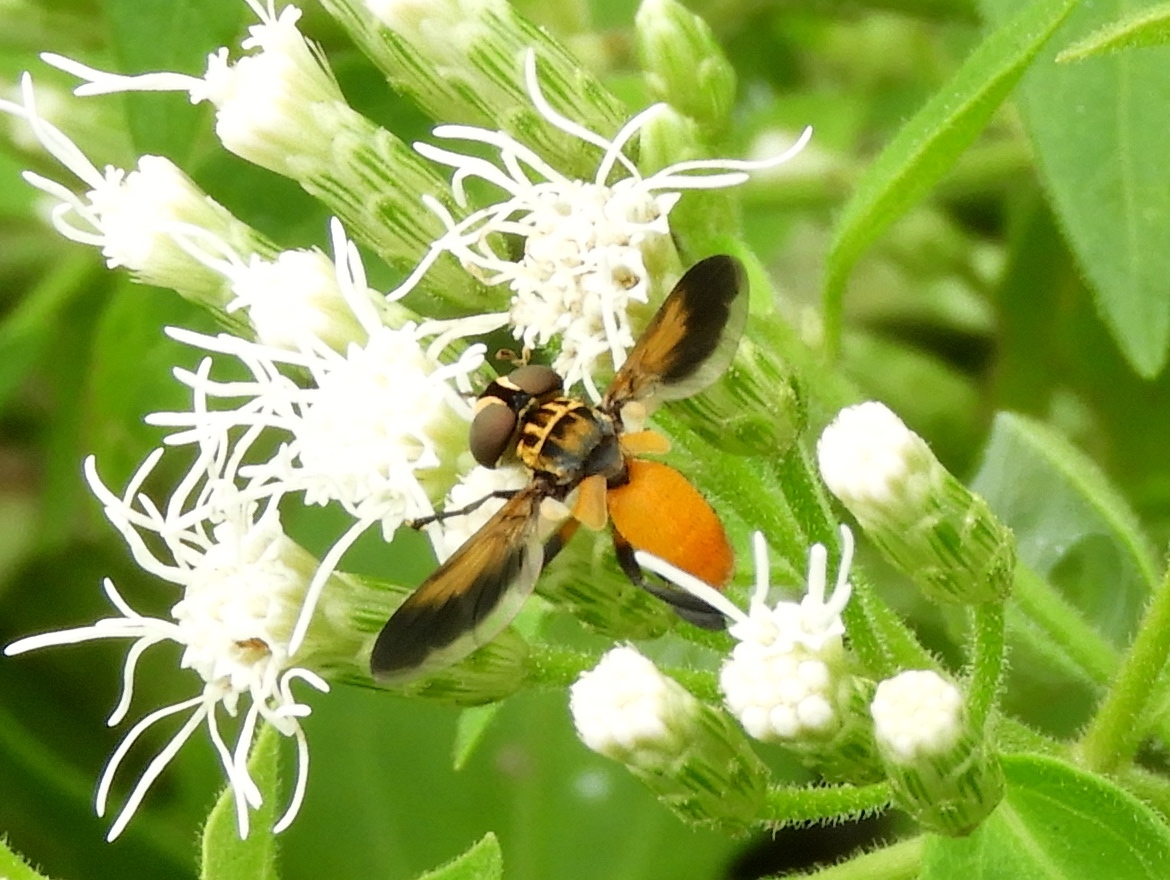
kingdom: Animalia
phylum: Arthropoda
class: Insecta
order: Diptera
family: Tachinidae
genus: Trichopoda
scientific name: Trichopoda pennipes
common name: Tachinid fly
